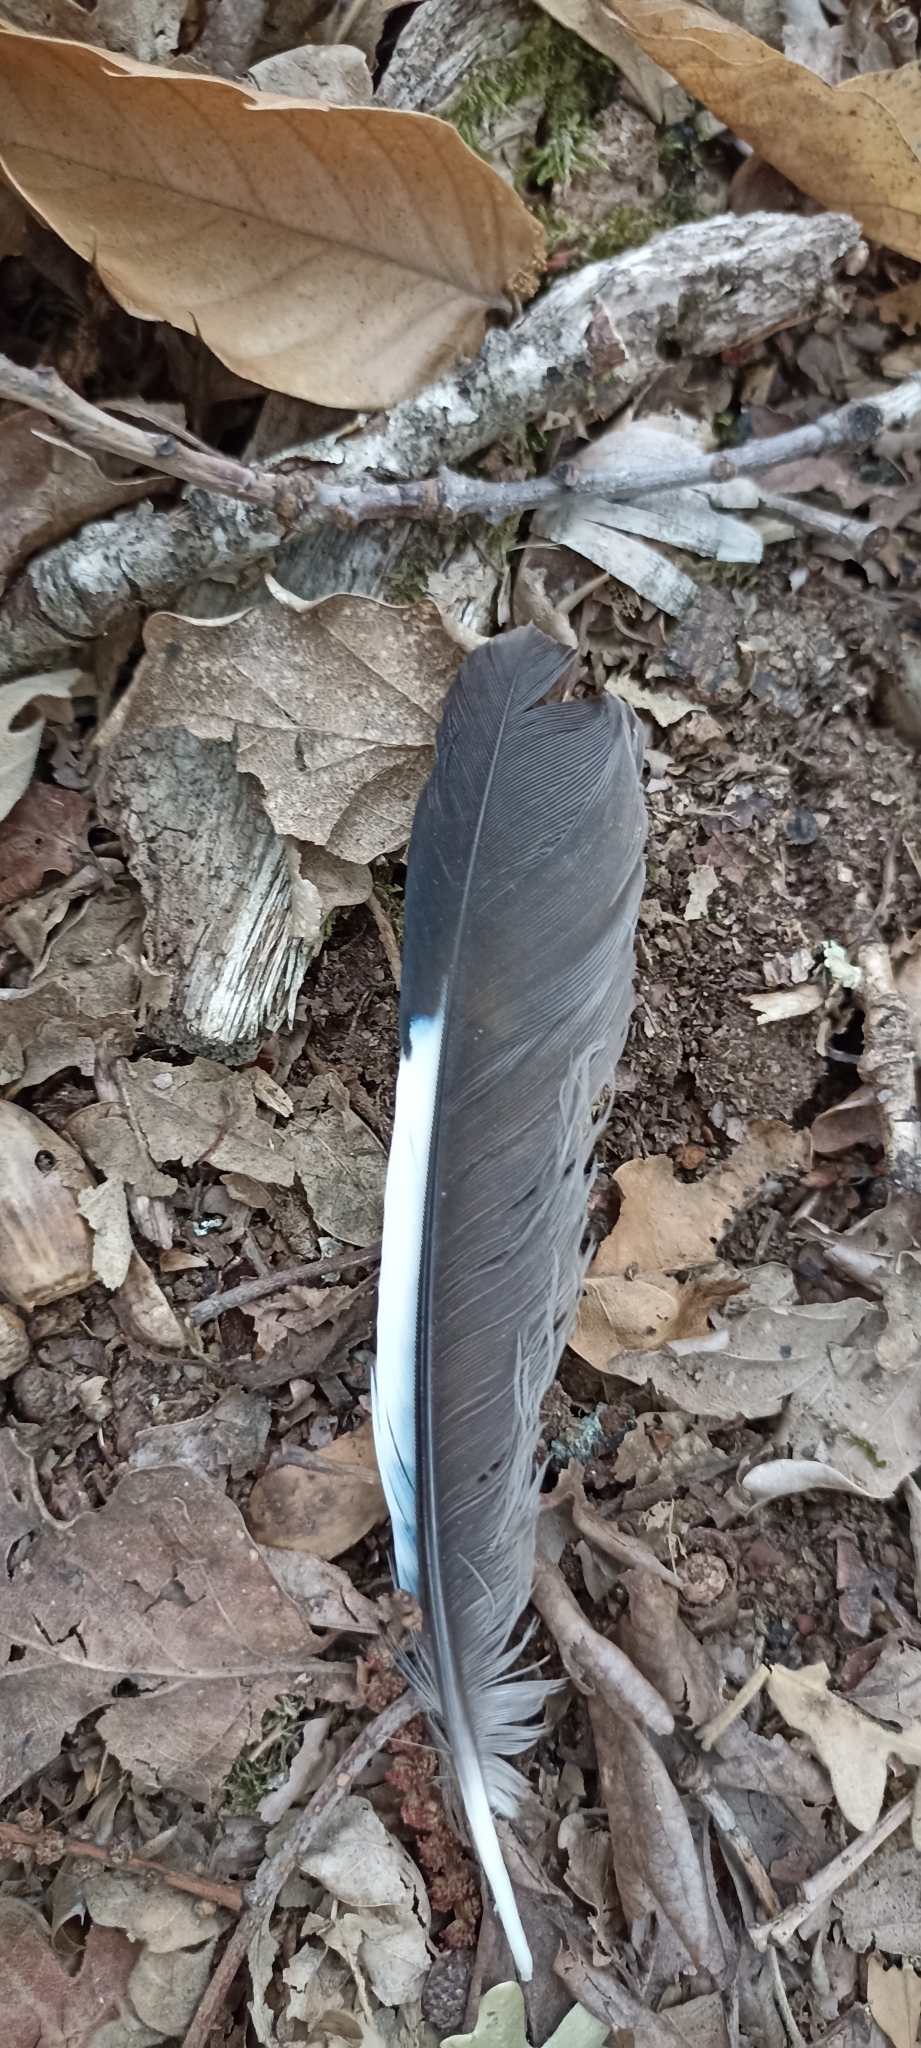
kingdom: Animalia
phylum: Chordata
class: Aves
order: Passeriformes
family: Corvidae
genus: Garrulus
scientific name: Garrulus glandarius
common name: Eurasian jay
